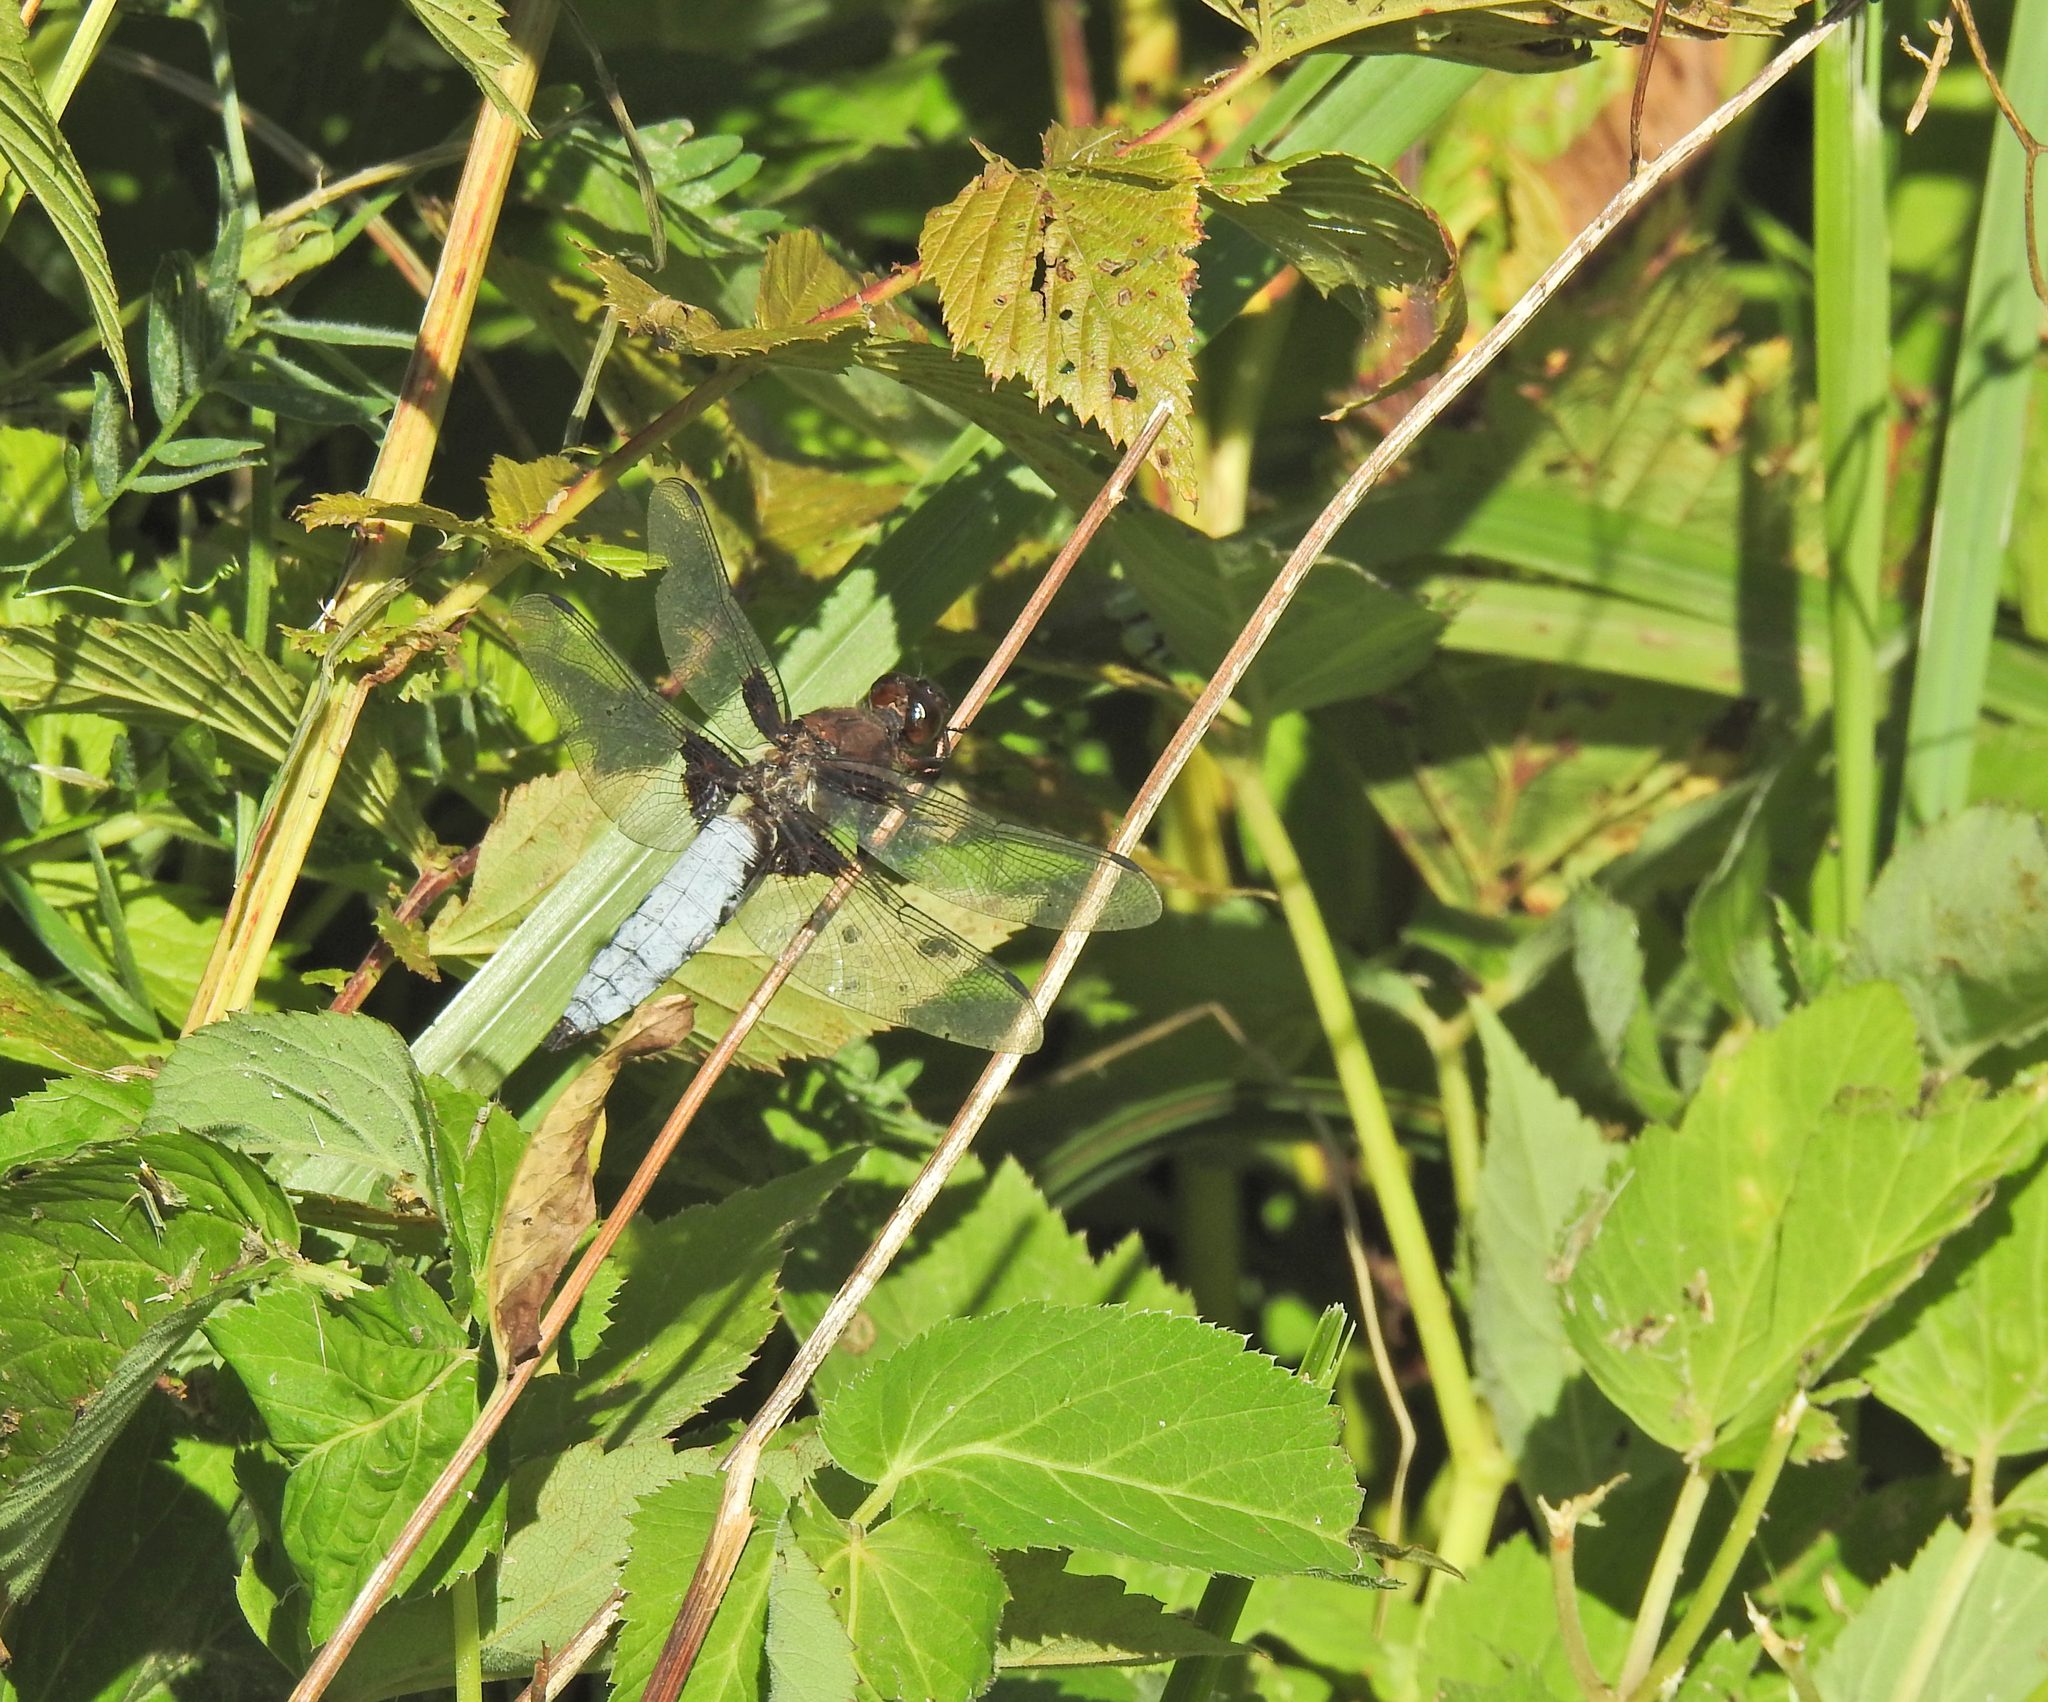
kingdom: Animalia
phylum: Arthropoda
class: Insecta
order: Odonata
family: Libellulidae
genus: Libellula
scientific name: Libellula depressa
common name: Broad-bodied chaser
